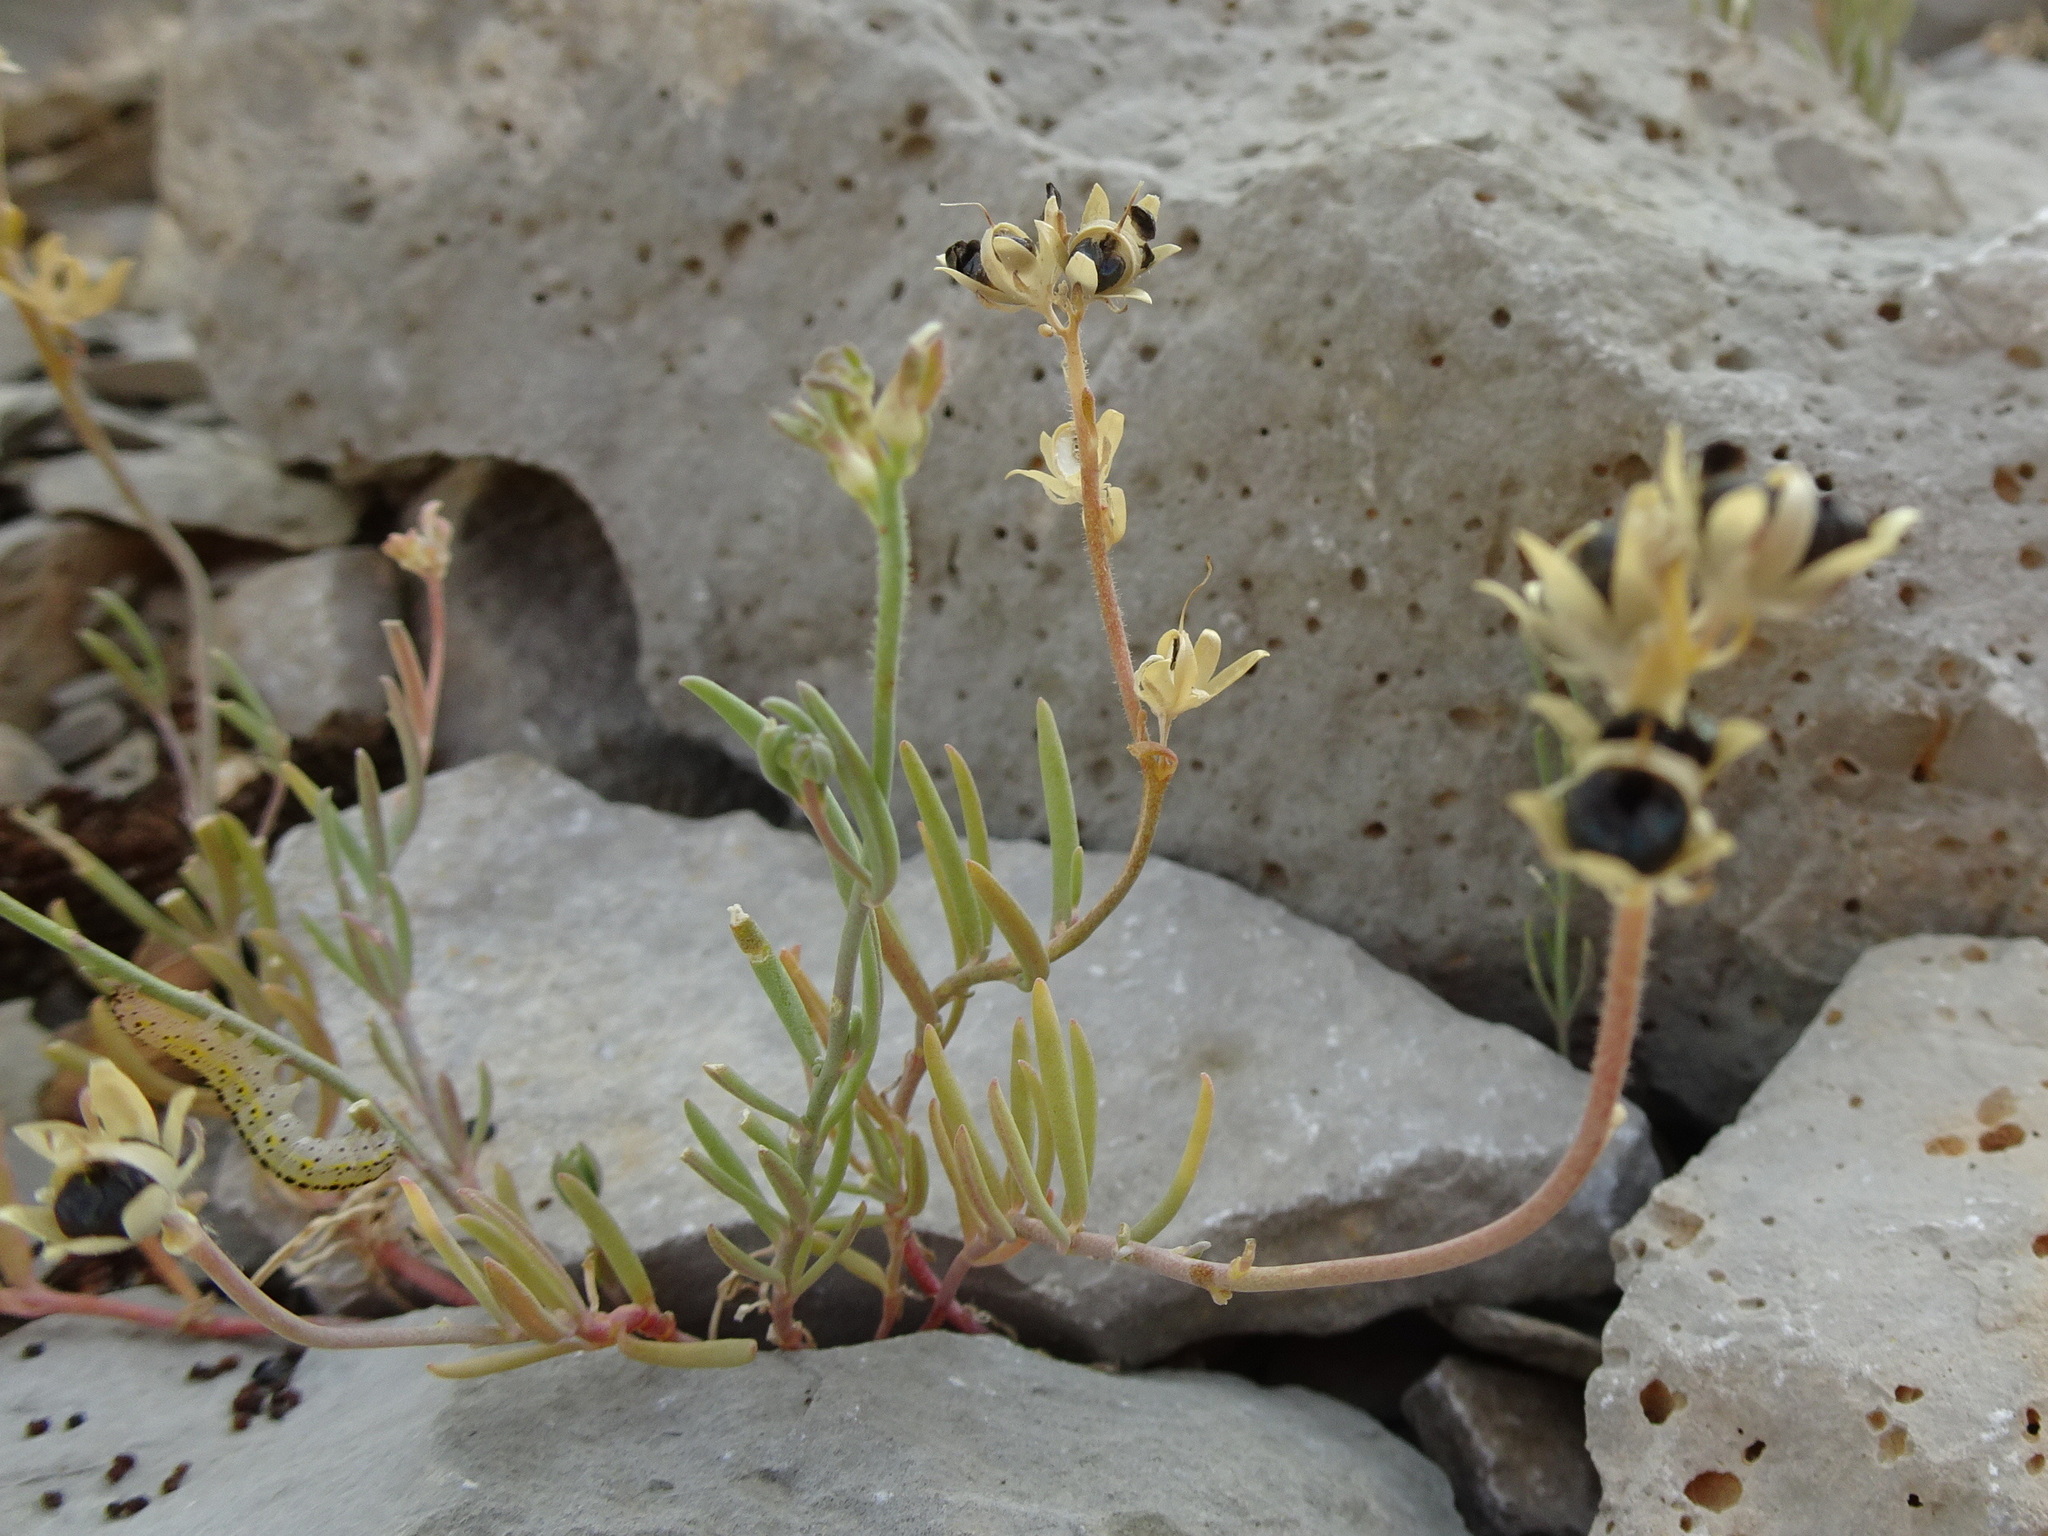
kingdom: Plantae
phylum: Tracheophyta
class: Magnoliopsida
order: Lamiales
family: Plantaginaceae
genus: Linaria
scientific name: Linaria supina
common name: Prostrate toadflax
